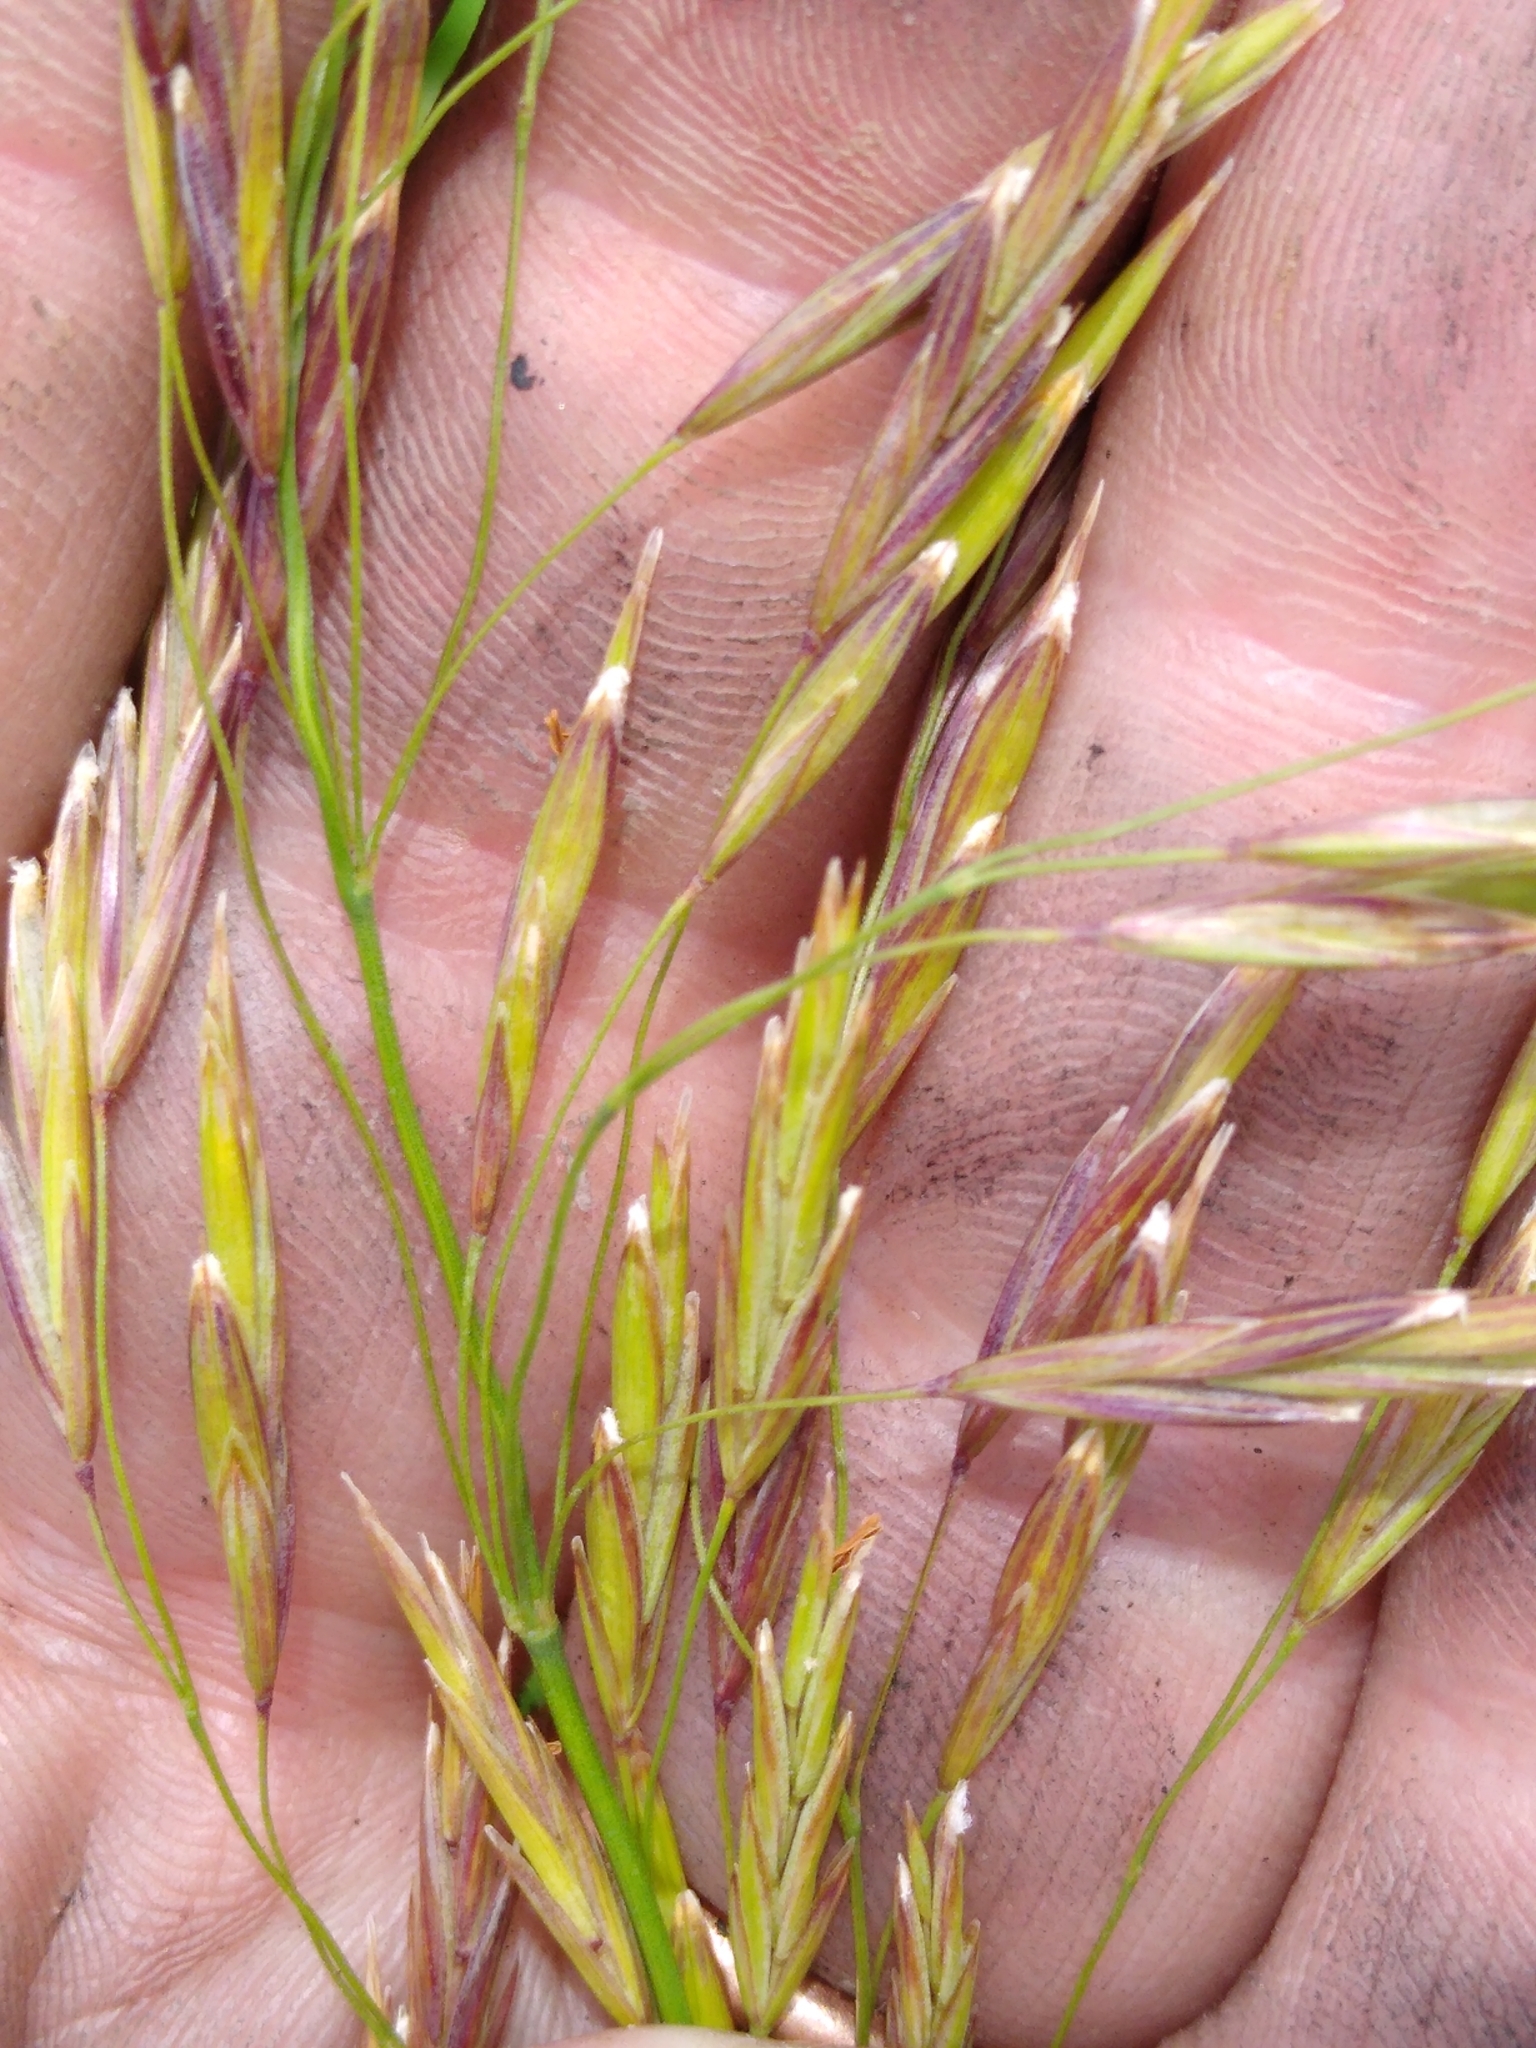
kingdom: Plantae
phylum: Tracheophyta
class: Liliopsida
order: Poales
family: Poaceae
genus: Bromus
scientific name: Bromus inermis
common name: Smooth brome
